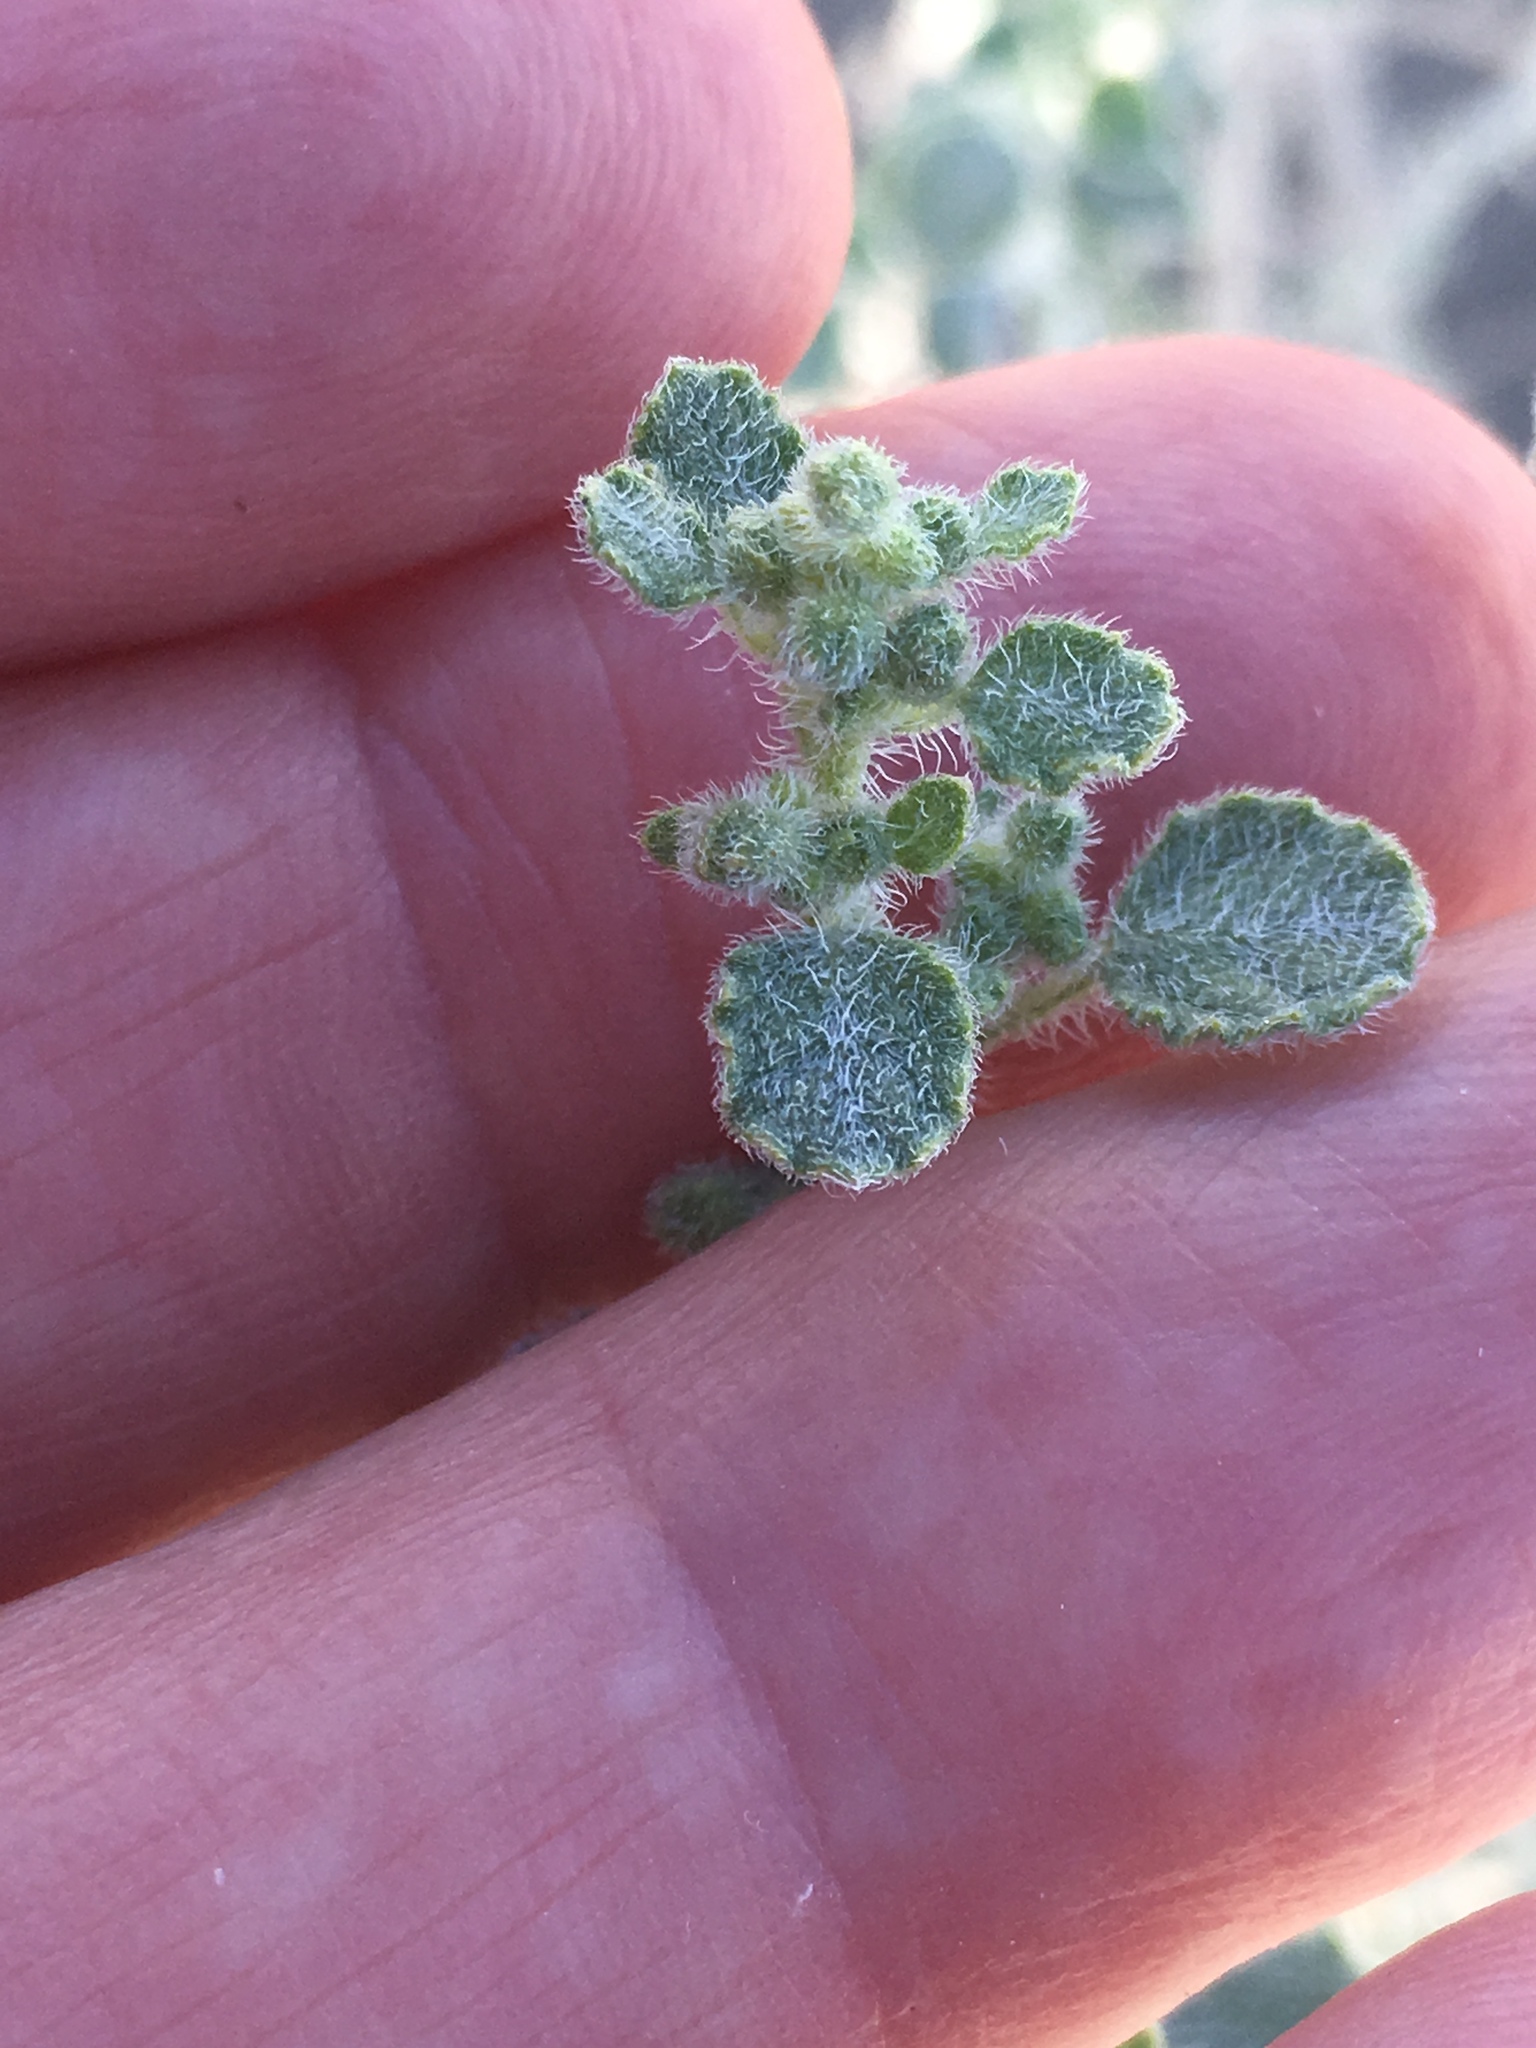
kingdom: Plantae
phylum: Tracheophyta
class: Magnoliopsida
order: Asterales
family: Asteraceae
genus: Dicoria
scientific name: Dicoria canescens
